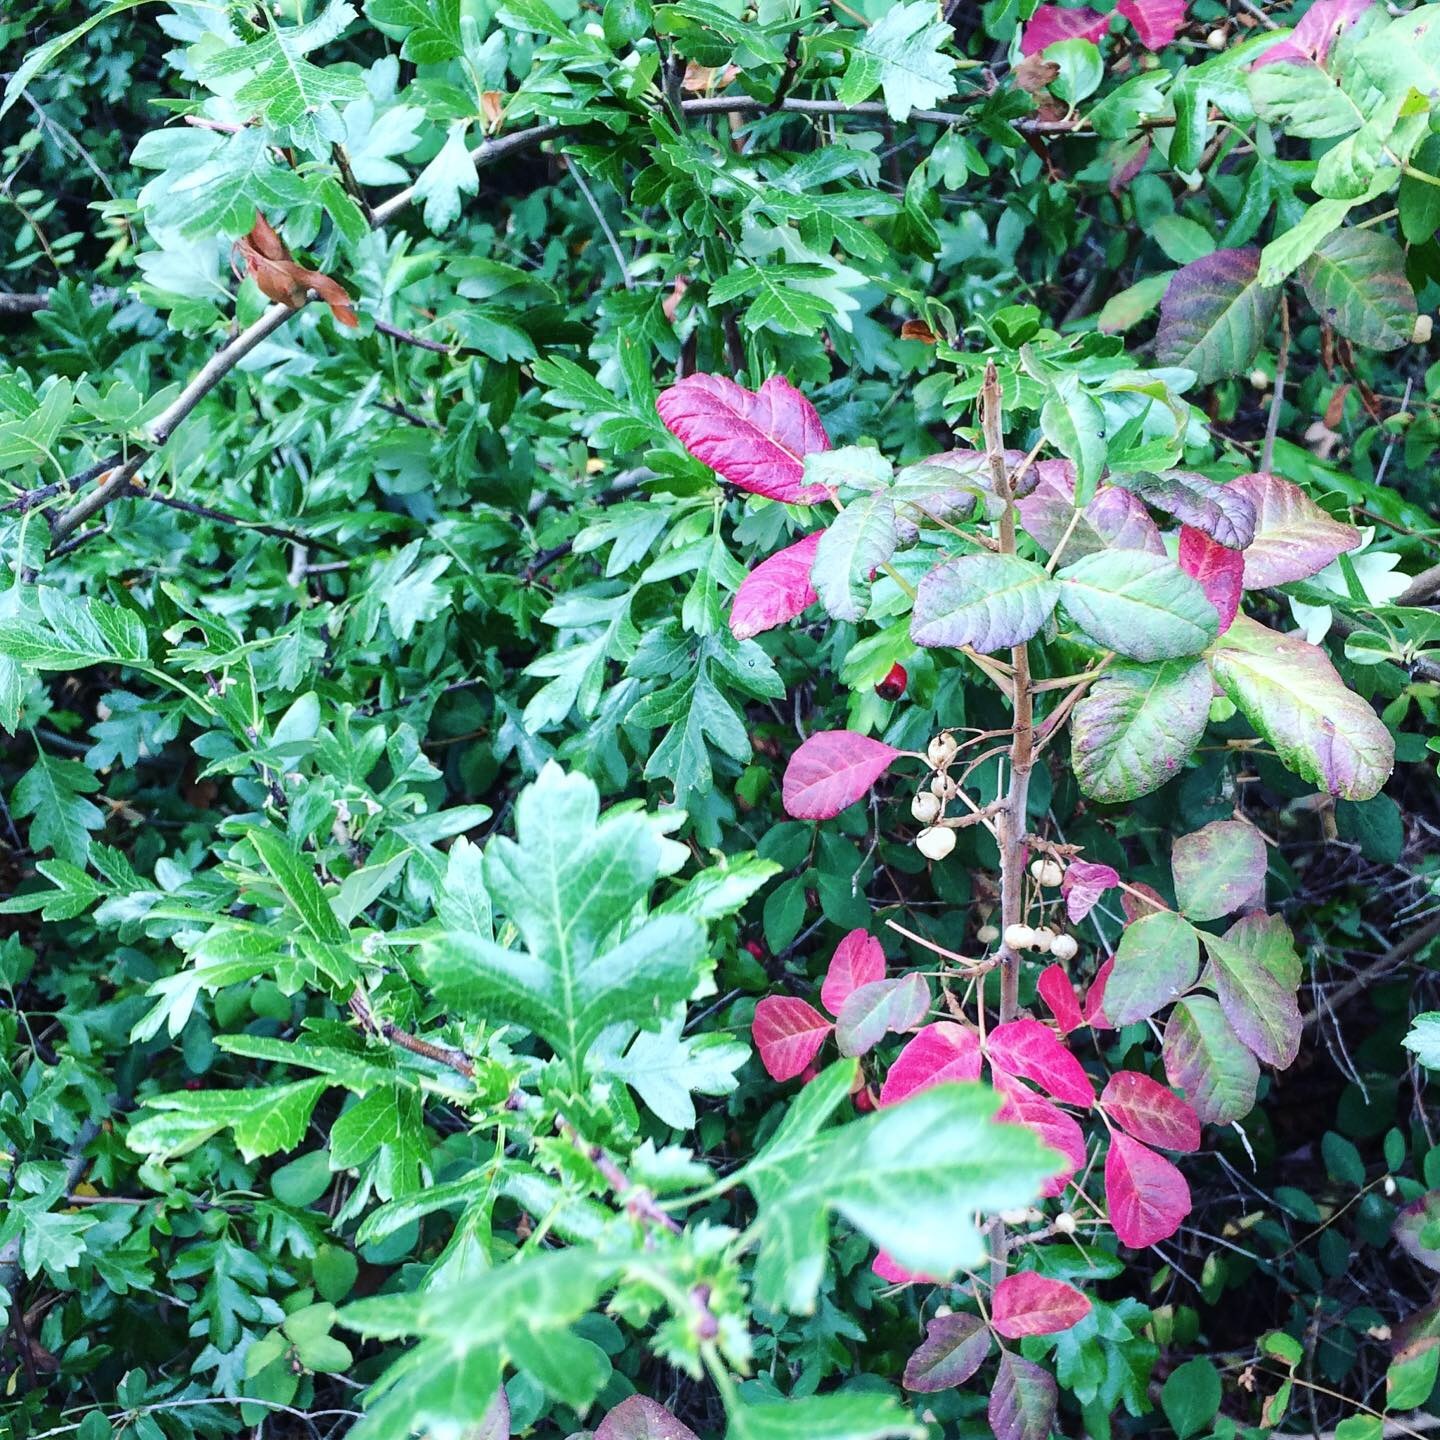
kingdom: Plantae
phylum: Tracheophyta
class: Magnoliopsida
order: Sapindales
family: Anacardiaceae
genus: Toxicodendron
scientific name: Toxicodendron diversilobum
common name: Pacific poison-oak
